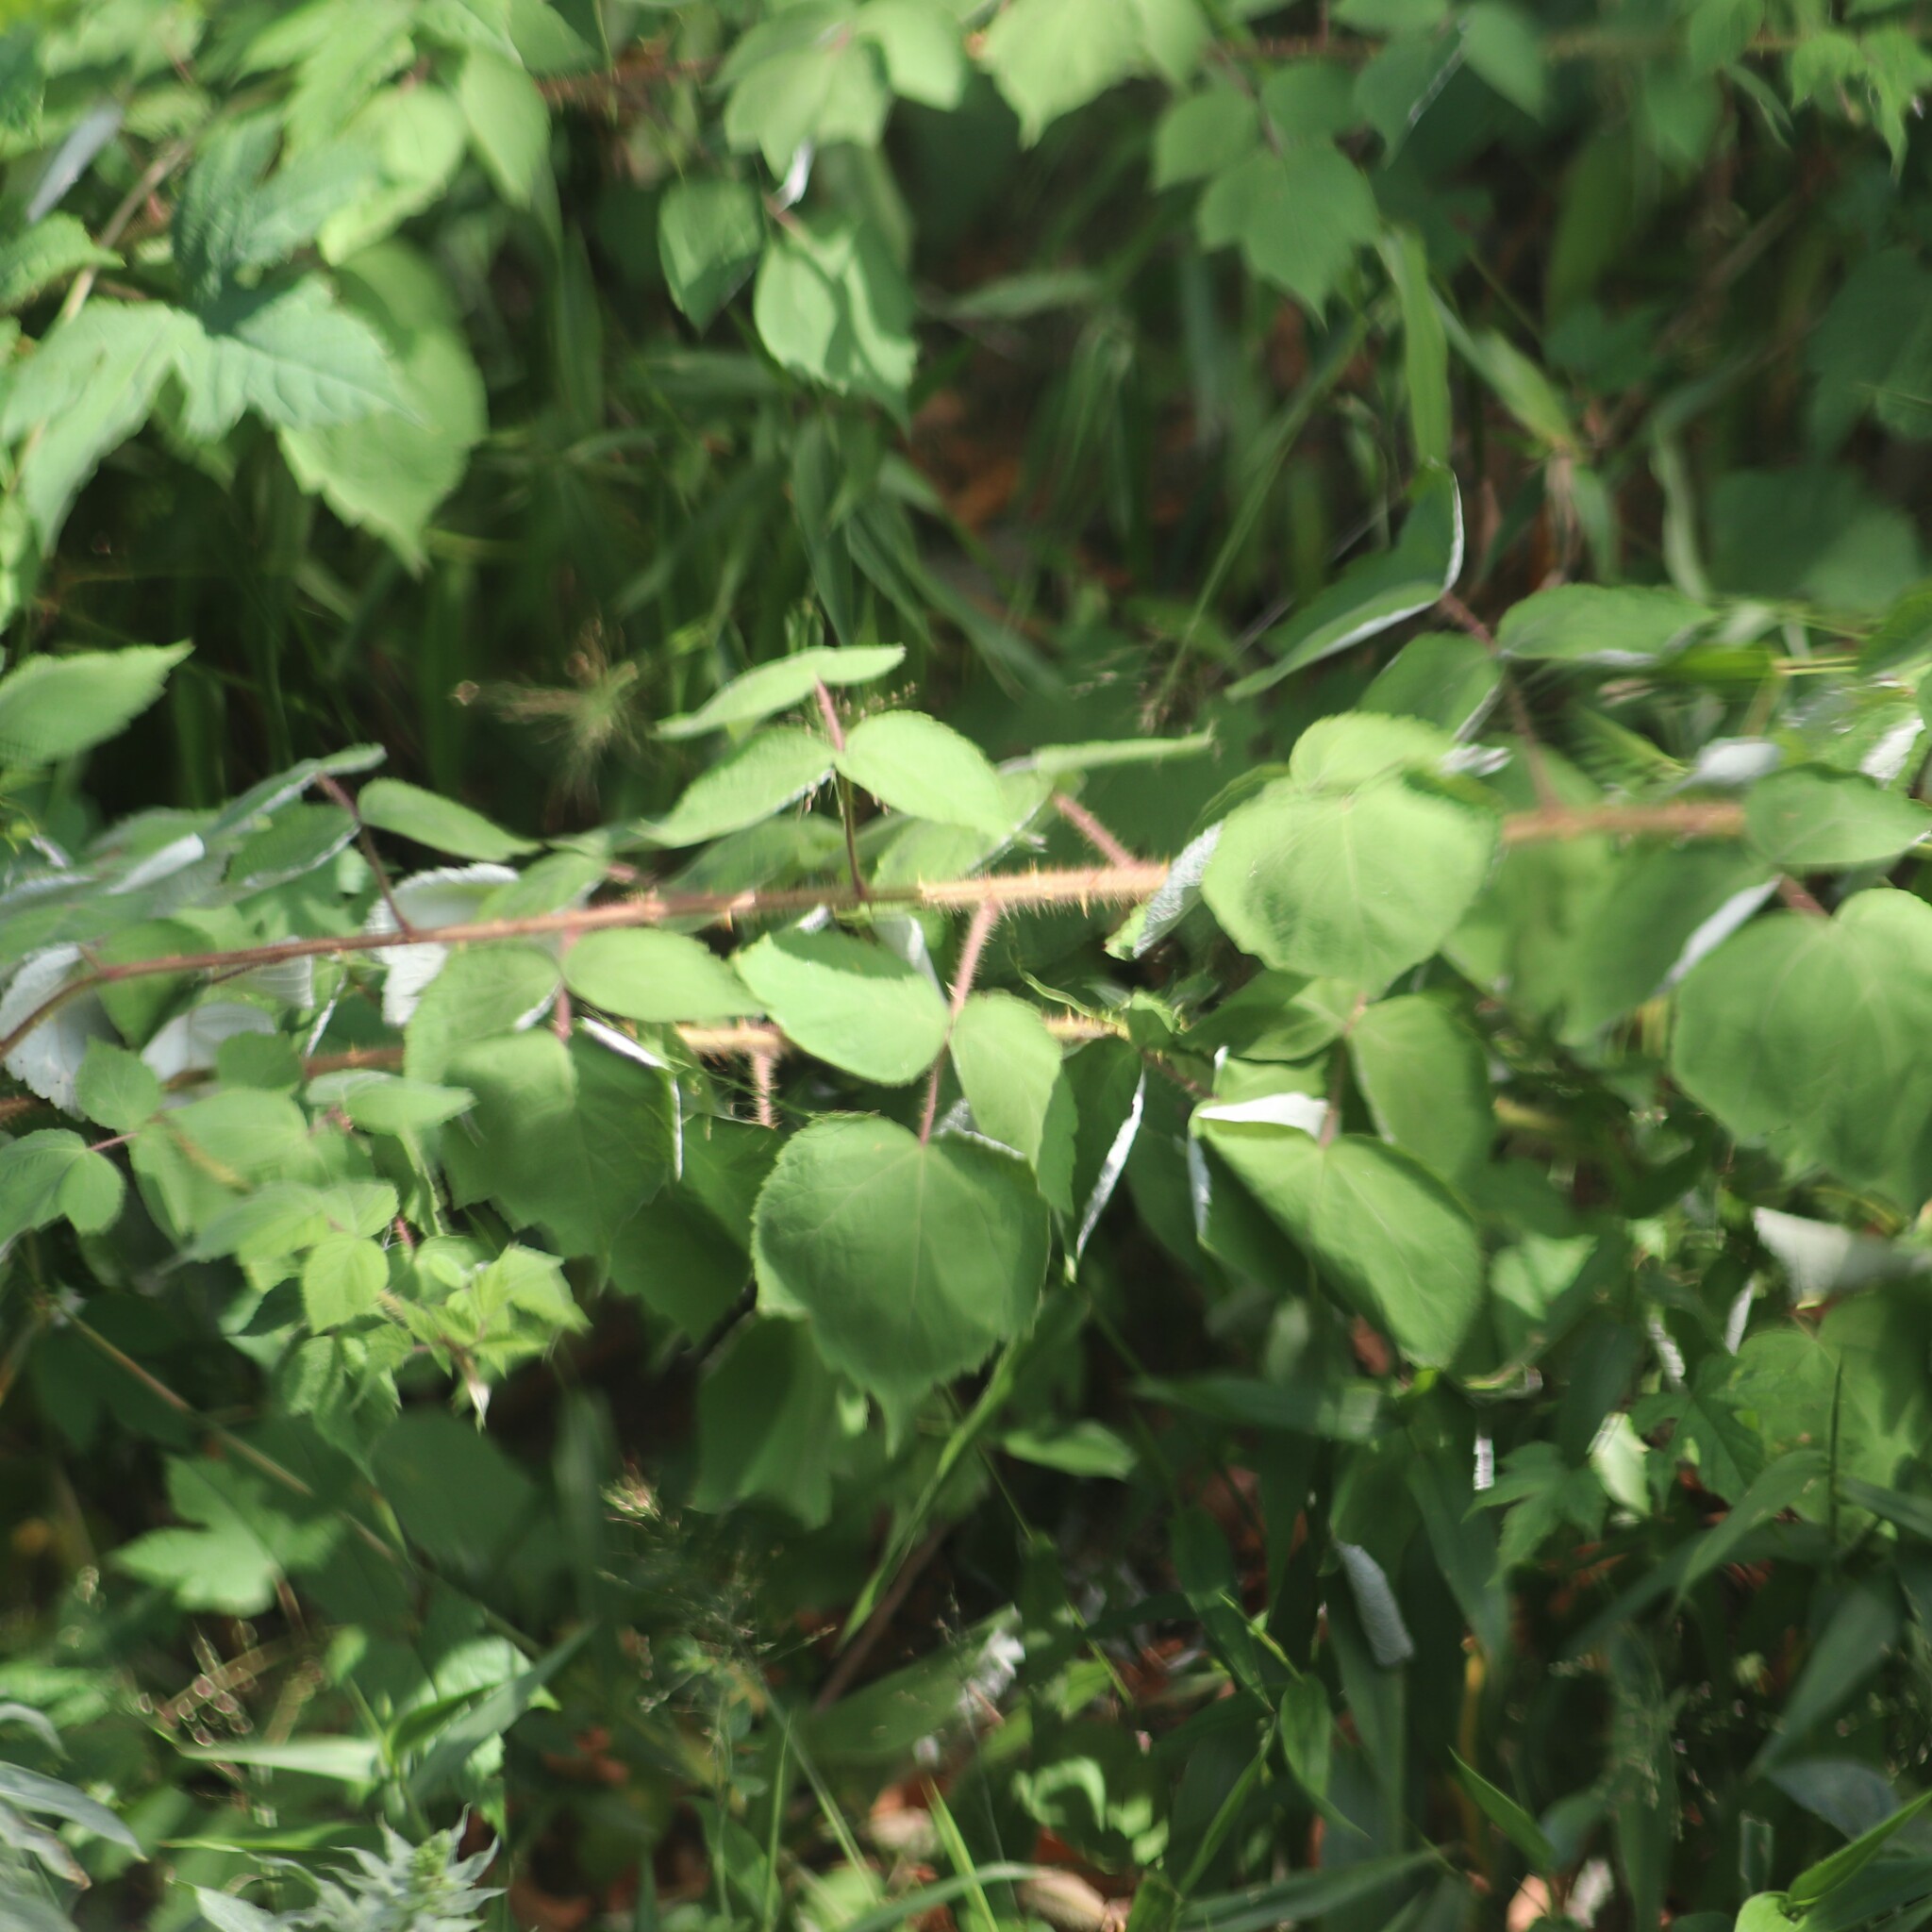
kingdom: Plantae
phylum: Tracheophyta
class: Magnoliopsida
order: Rosales
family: Rosaceae
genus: Rubus
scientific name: Rubus phoenicolasius
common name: Japanese wineberry
